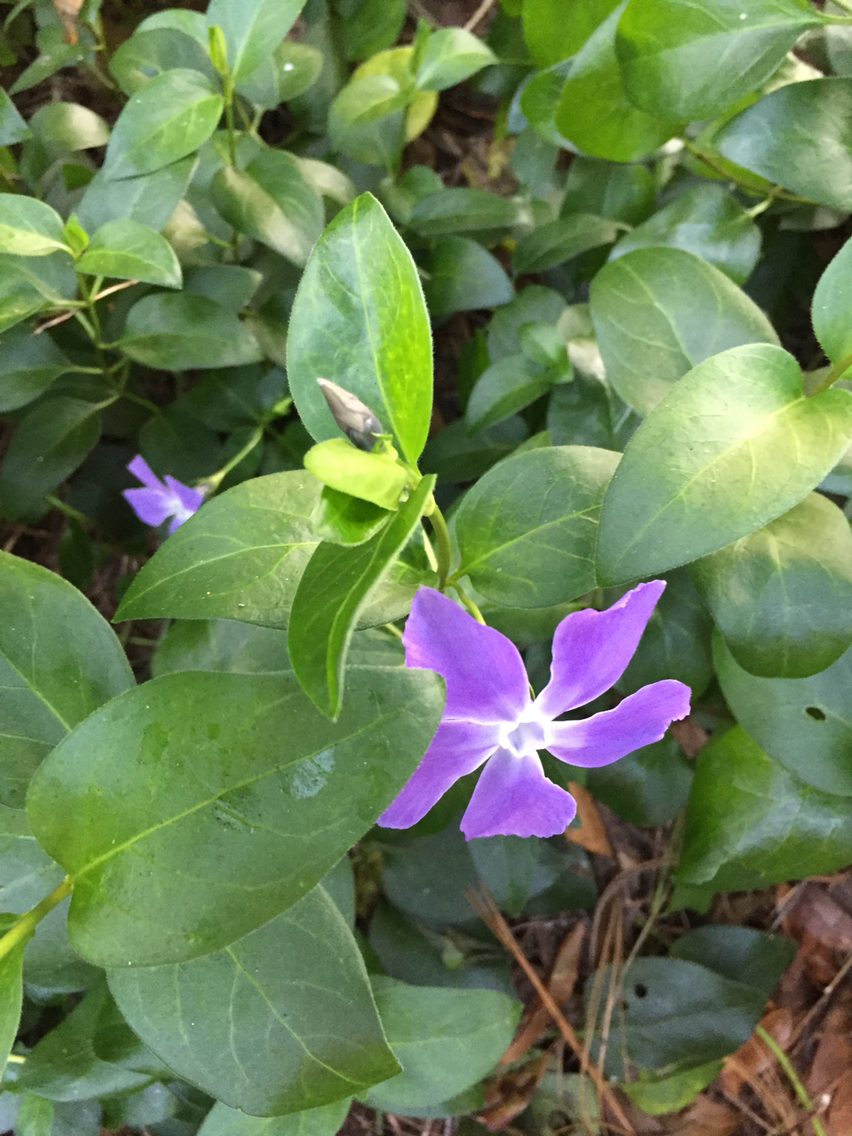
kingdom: Plantae
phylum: Tracheophyta
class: Magnoliopsida
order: Gentianales
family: Apocynaceae
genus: Vinca
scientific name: Vinca major
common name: Greater periwinkle
